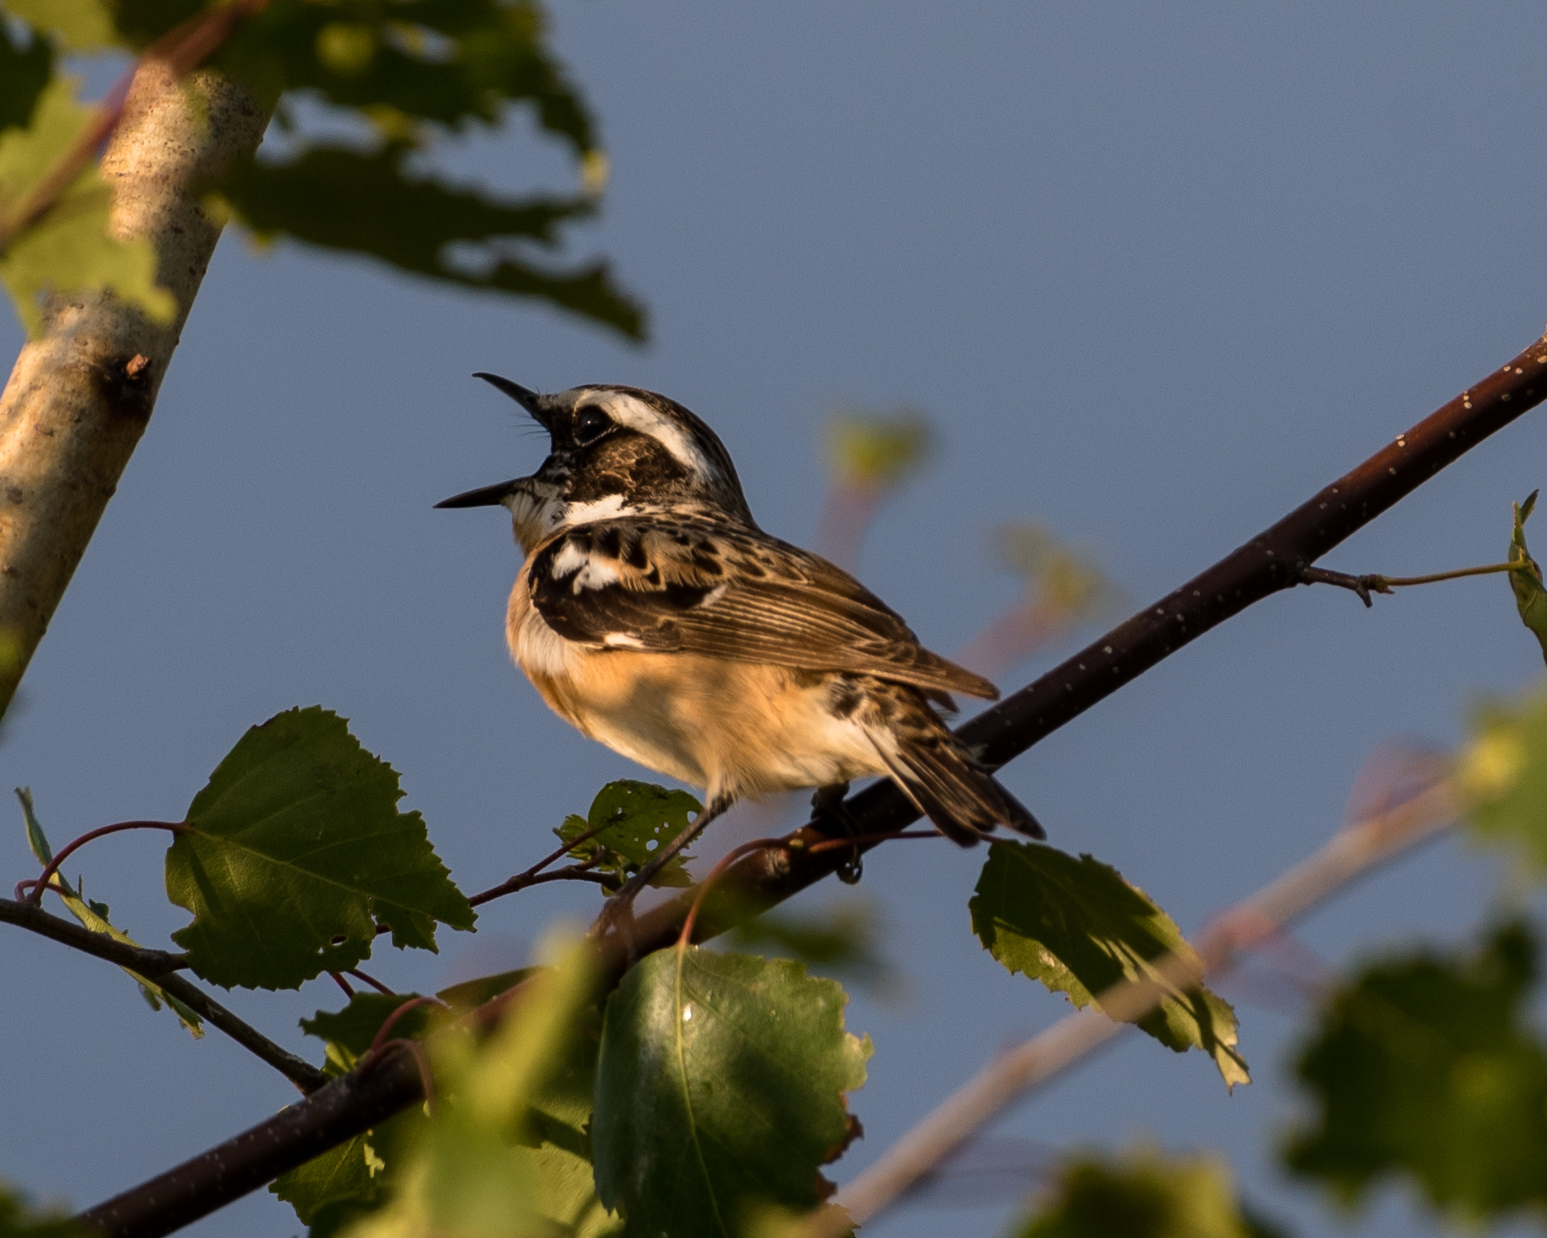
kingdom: Animalia
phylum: Chordata
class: Aves
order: Passeriformes
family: Muscicapidae
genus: Saxicola
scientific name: Saxicola rubetra
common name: Whinchat
